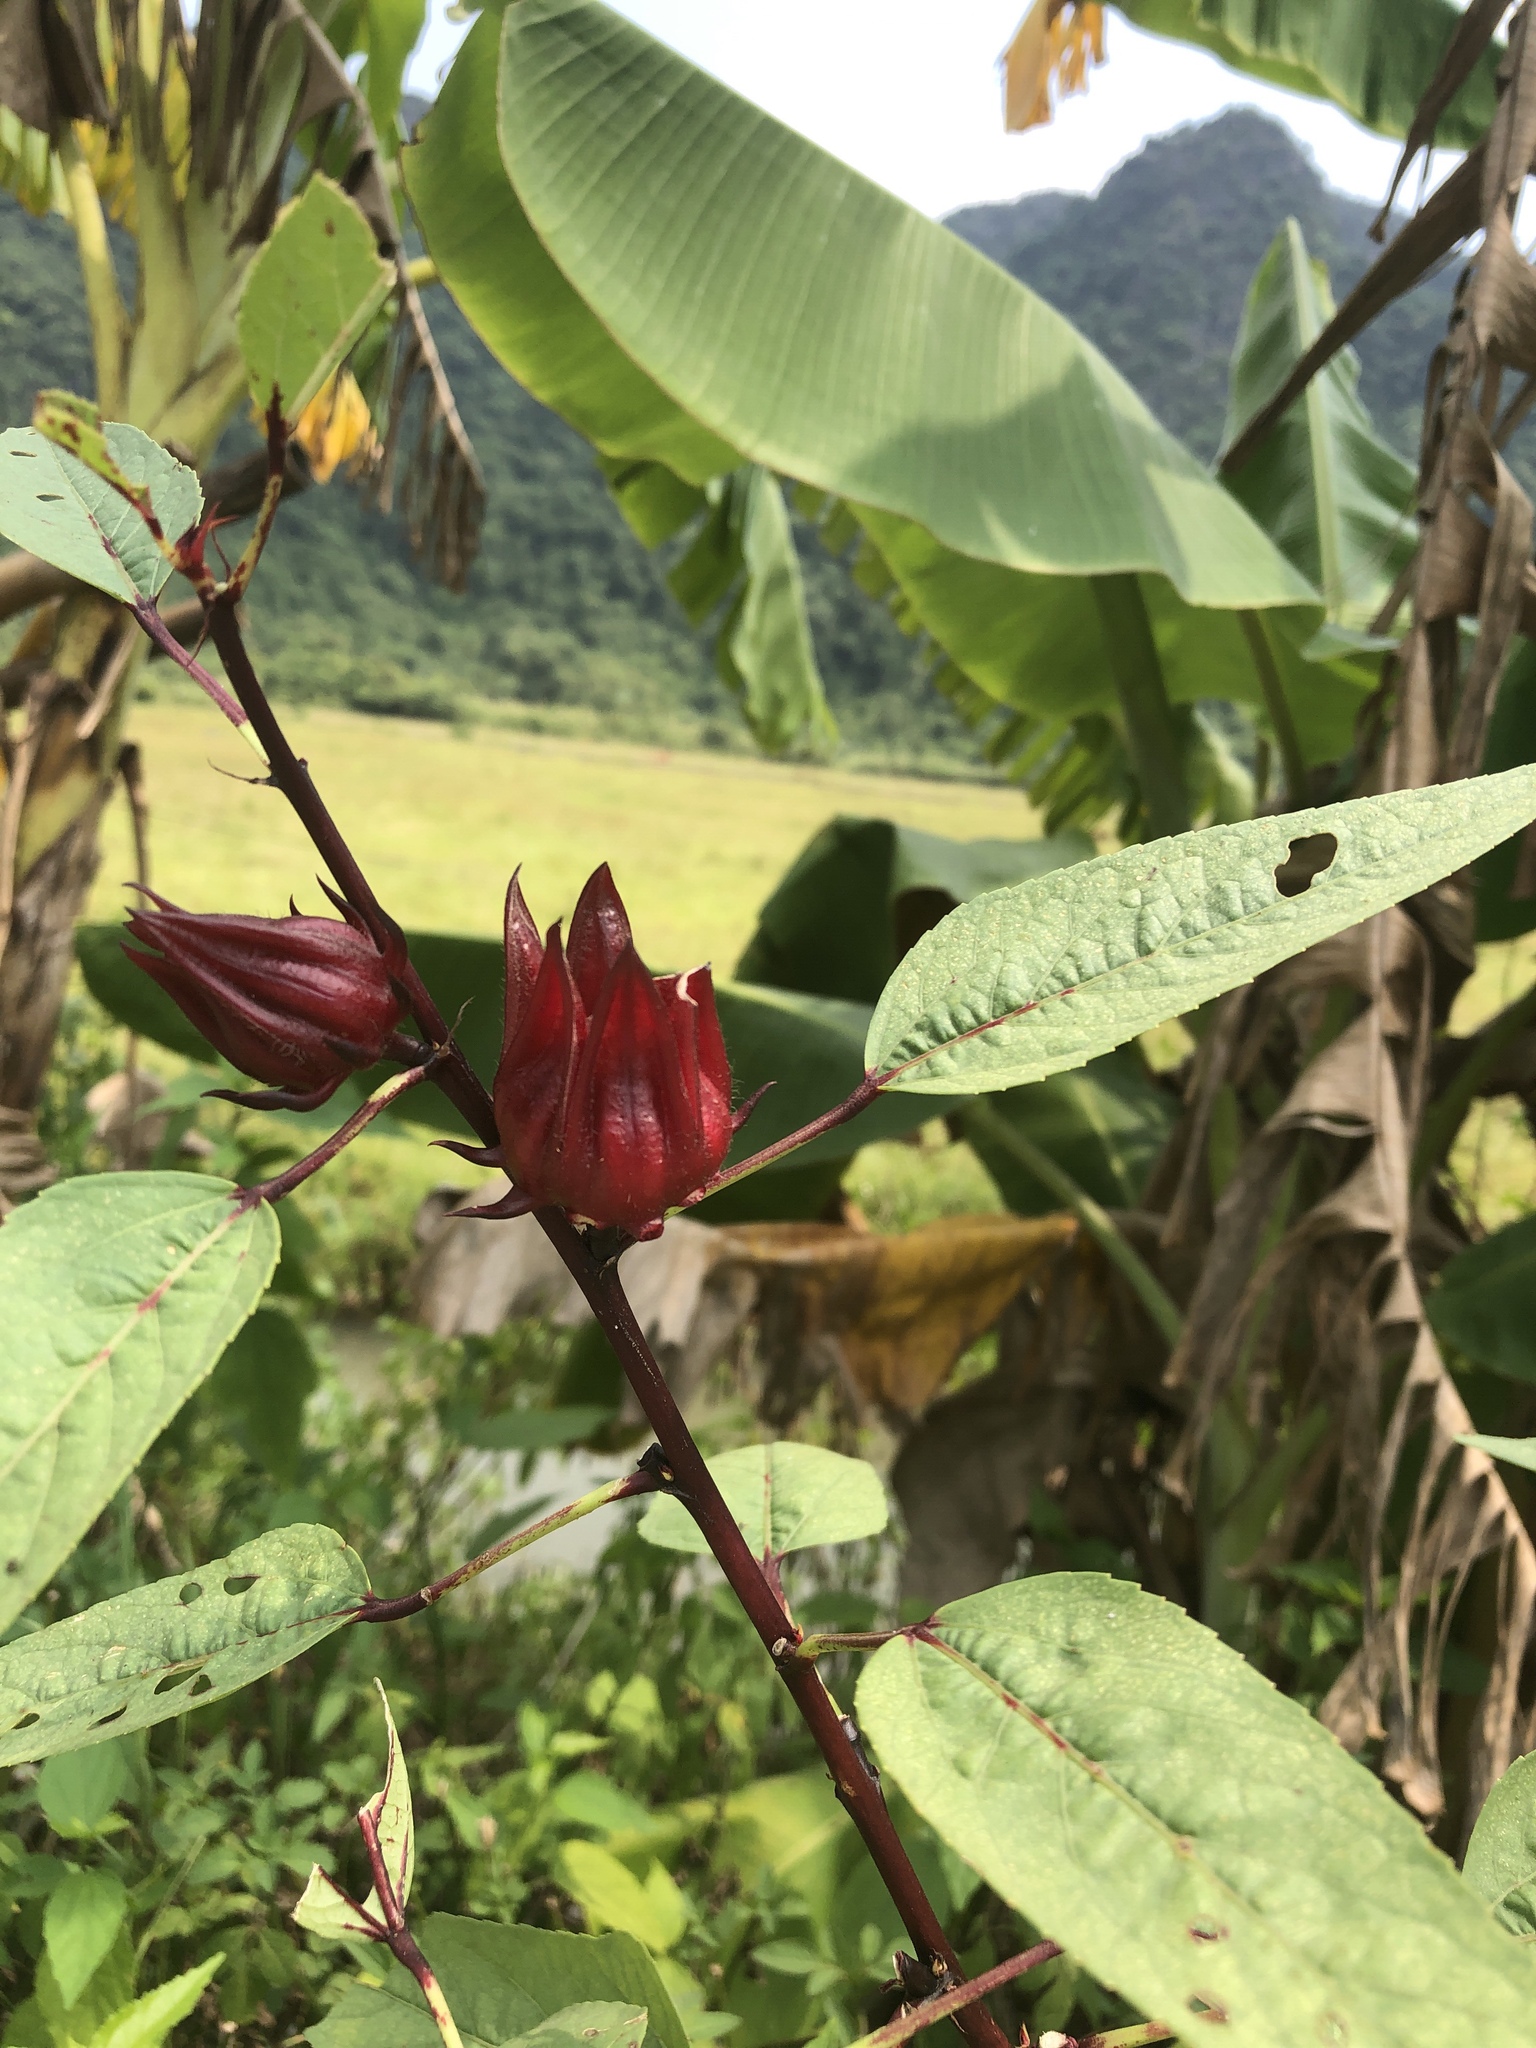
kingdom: Plantae
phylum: Tracheophyta
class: Magnoliopsida
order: Malvales
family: Malvaceae
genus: Hibiscus
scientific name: Hibiscus sabdariffa
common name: Roselle
